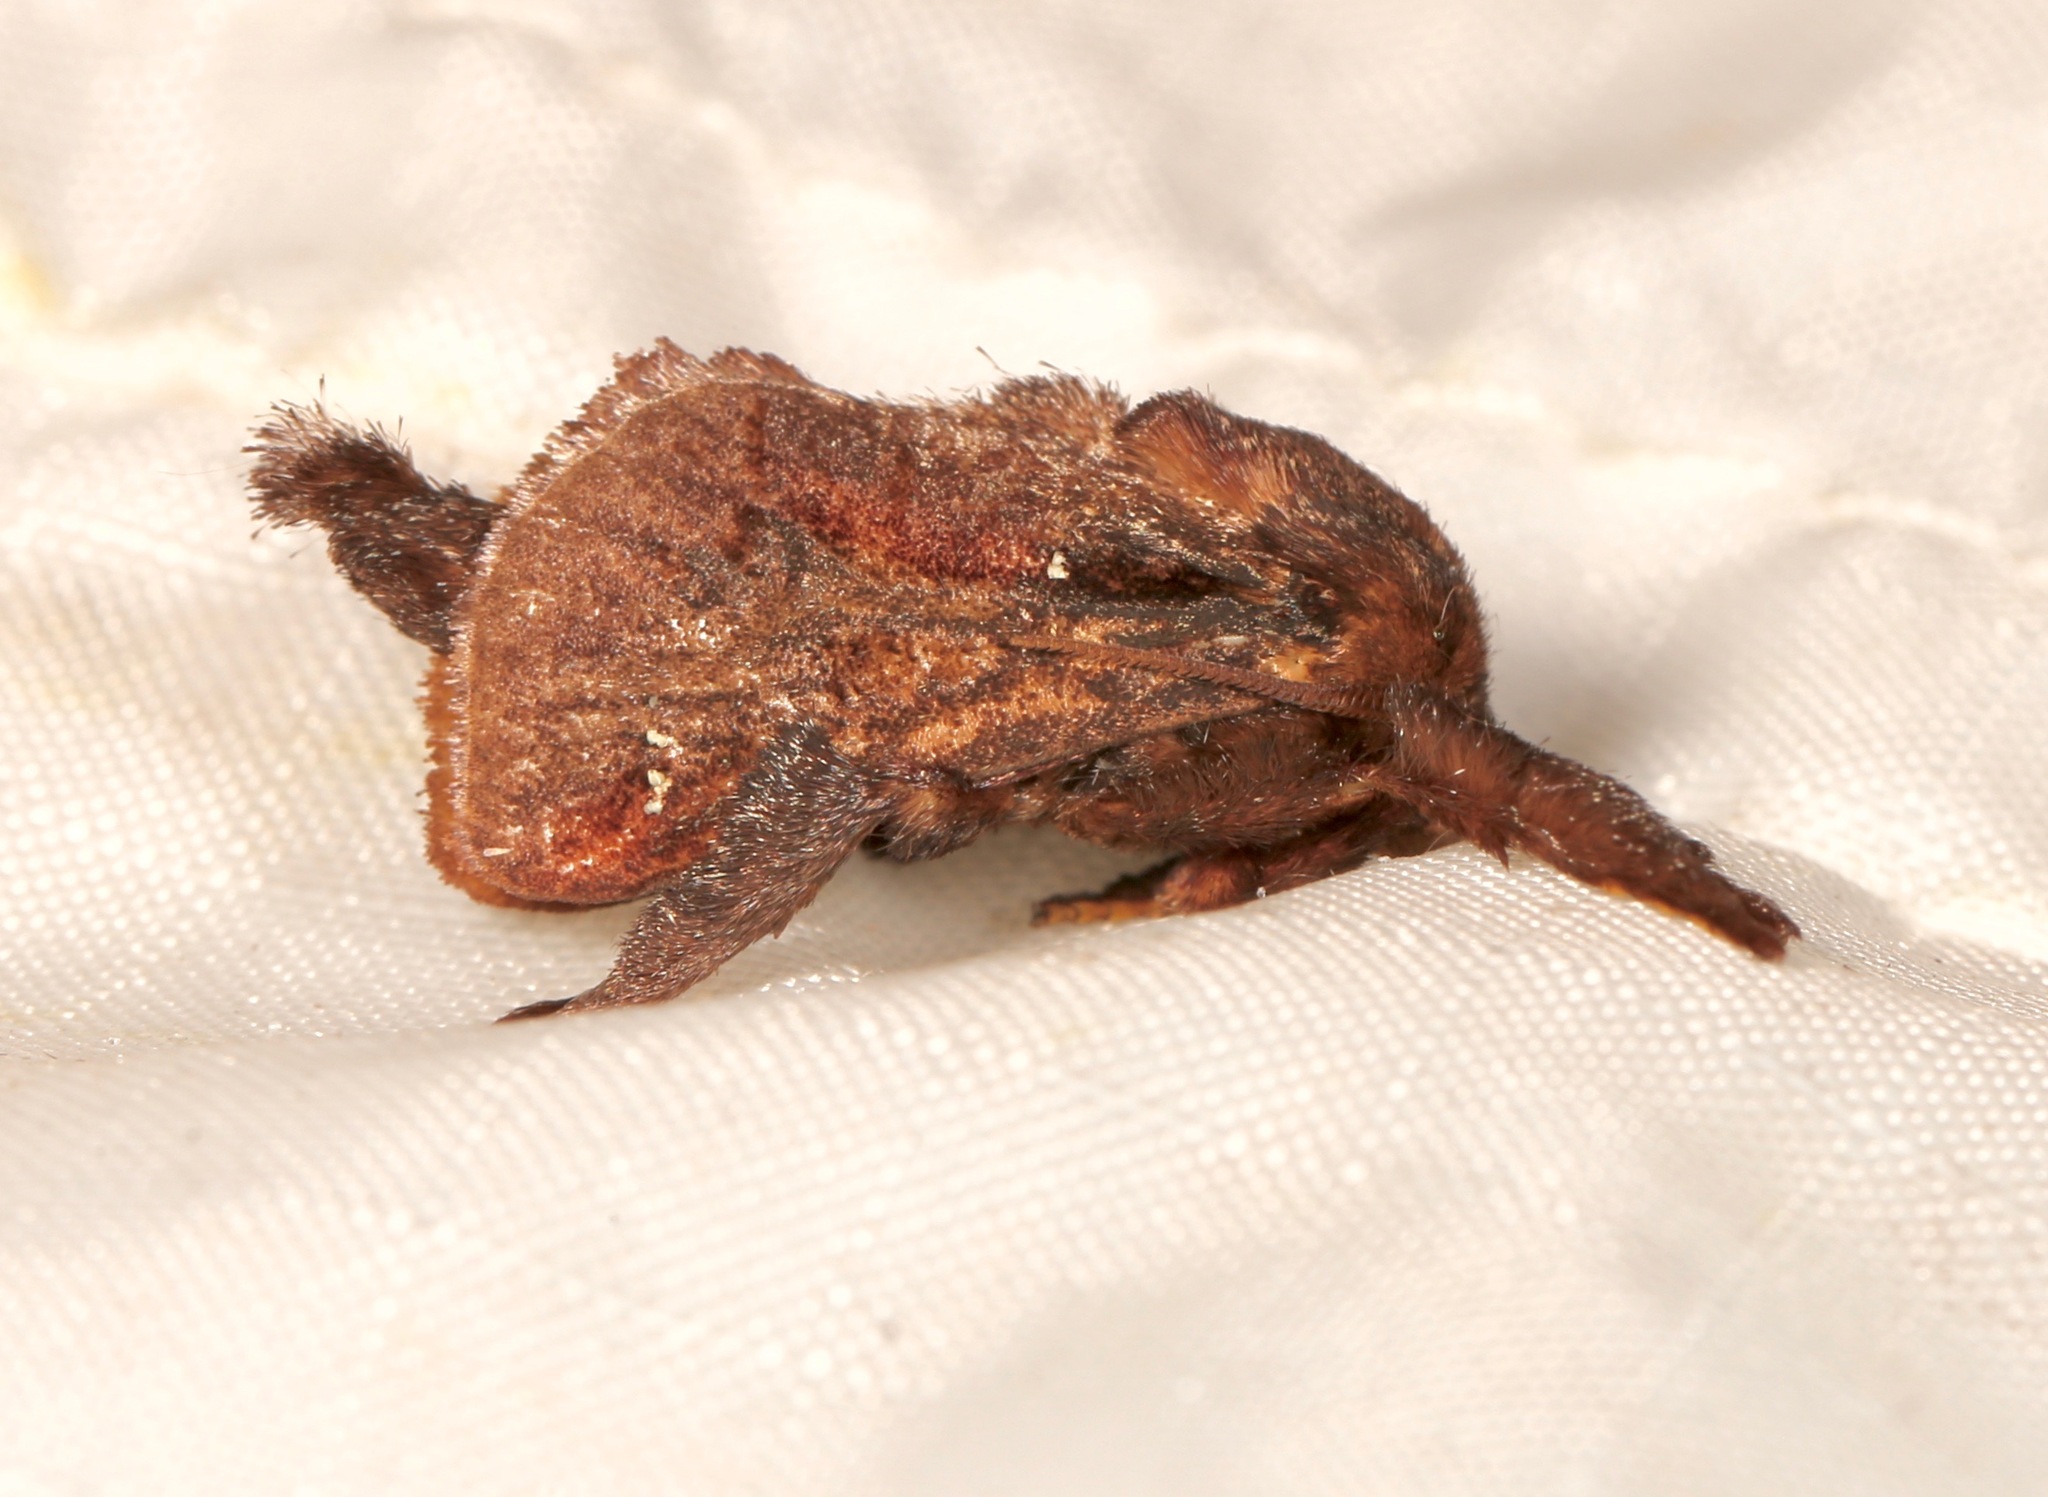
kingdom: Animalia
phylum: Arthropoda
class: Insecta
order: Lepidoptera
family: Limacodidae
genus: Acharia
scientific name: Acharia stimulea
